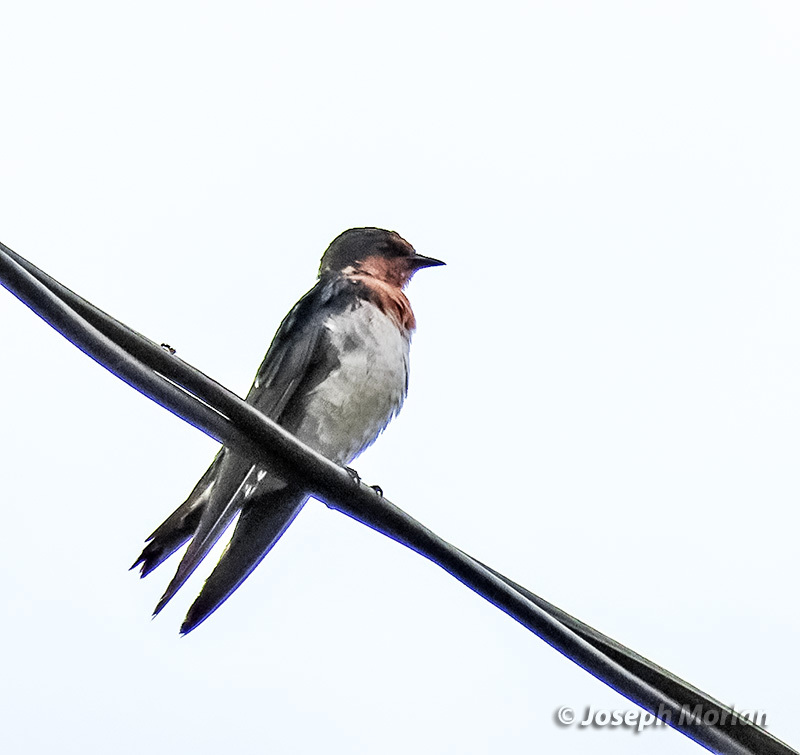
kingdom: Animalia
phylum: Chordata
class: Aves
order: Passeriformes
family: Hirundinidae
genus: Hirundo
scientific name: Hirundo tahitica
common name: Pacific swallow
